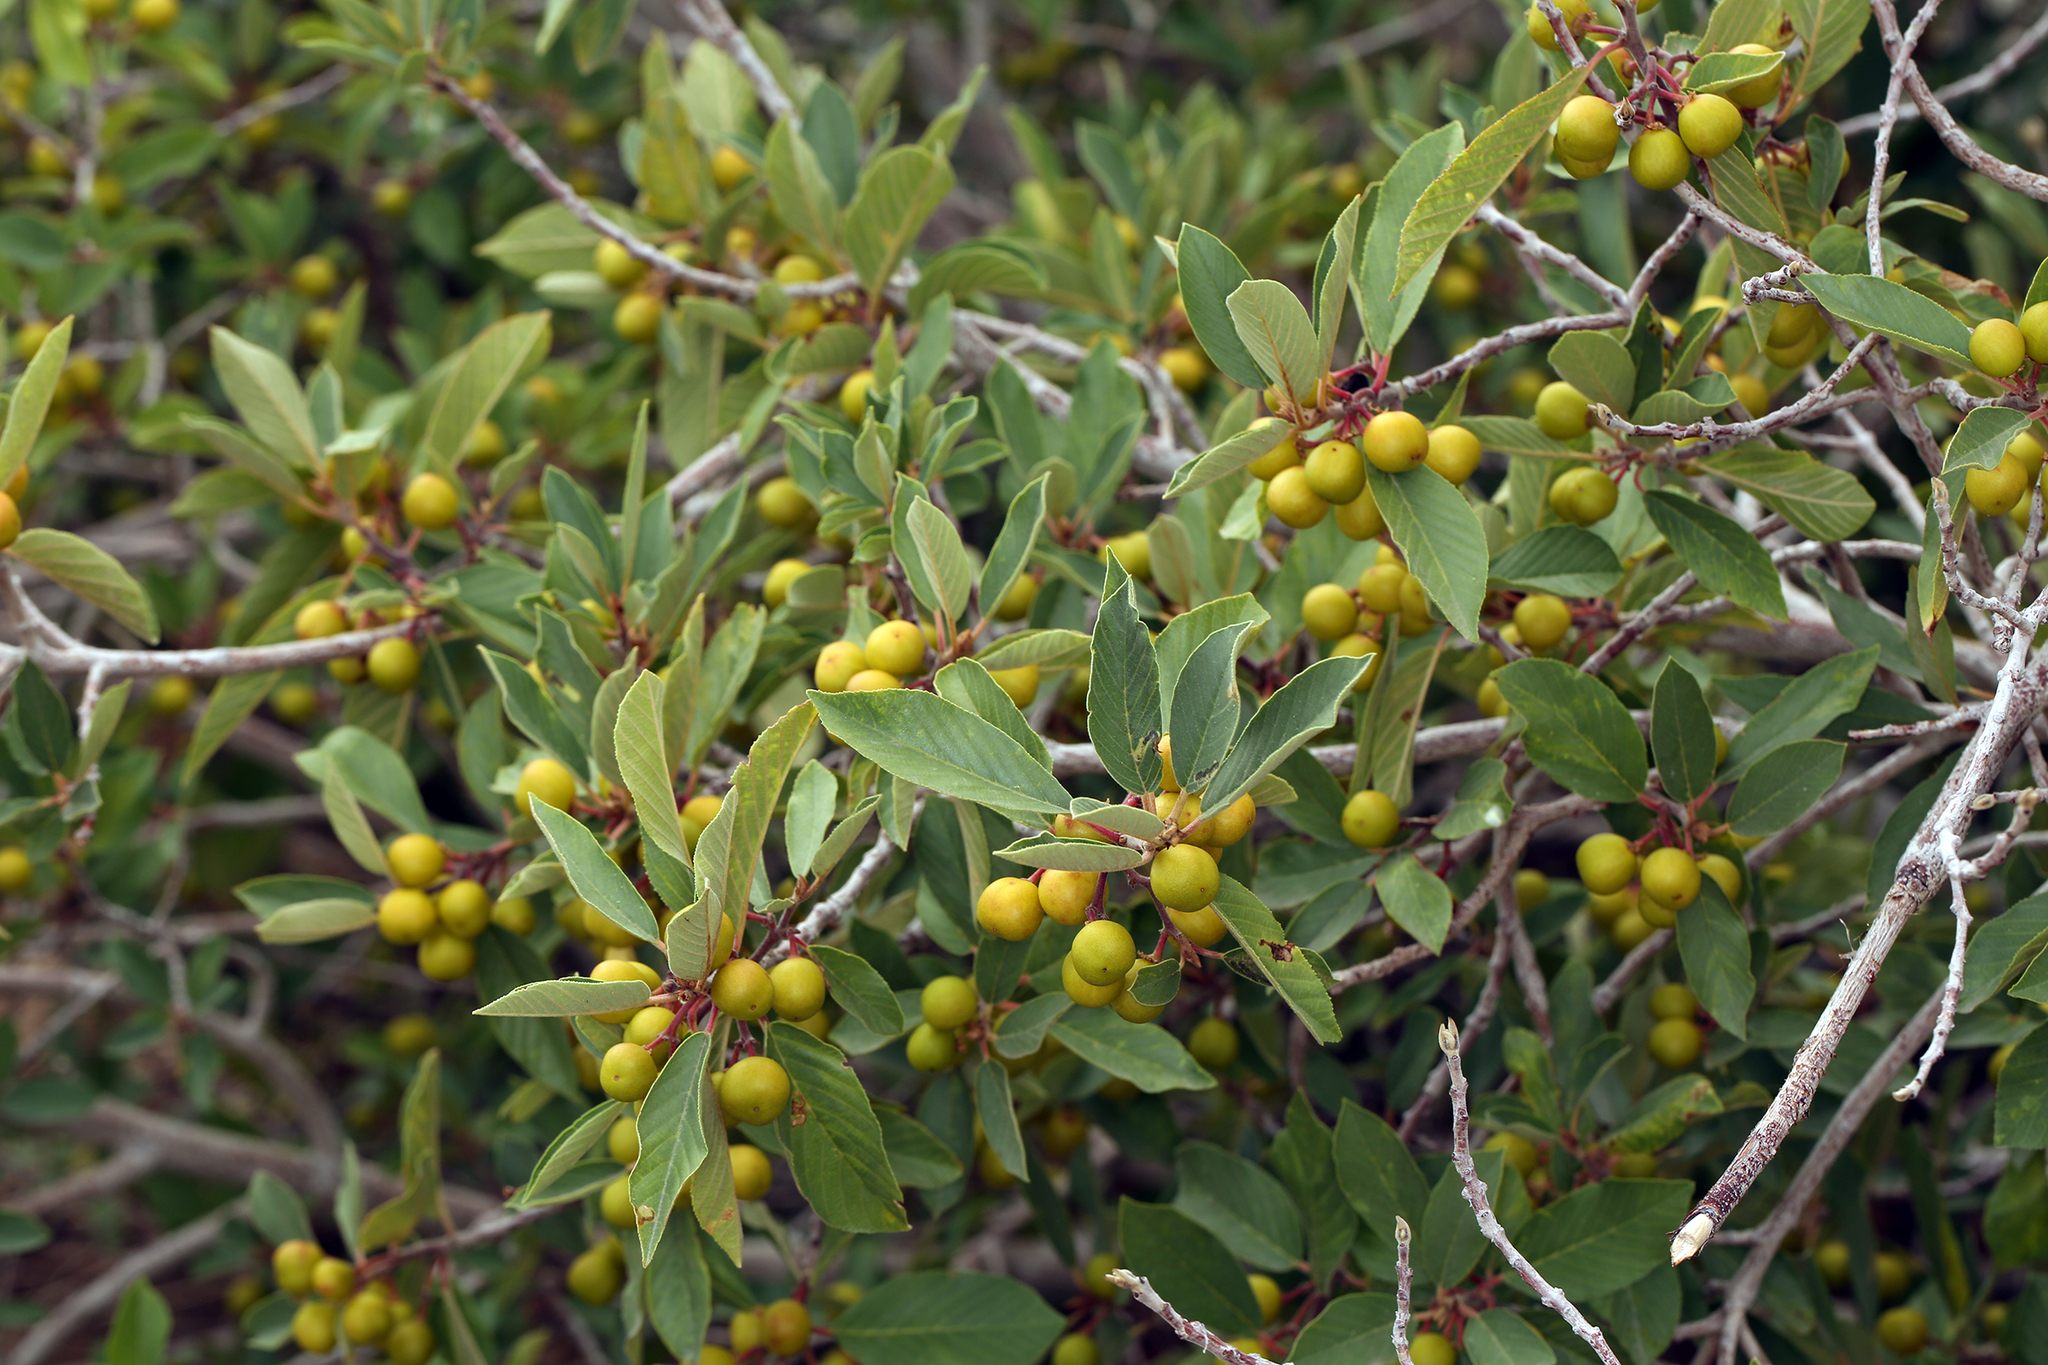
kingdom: Plantae
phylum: Tracheophyta
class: Magnoliopsida
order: Rosales
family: Rhamnaceae
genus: Frangula
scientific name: Frangula californica
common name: California buckthorn
